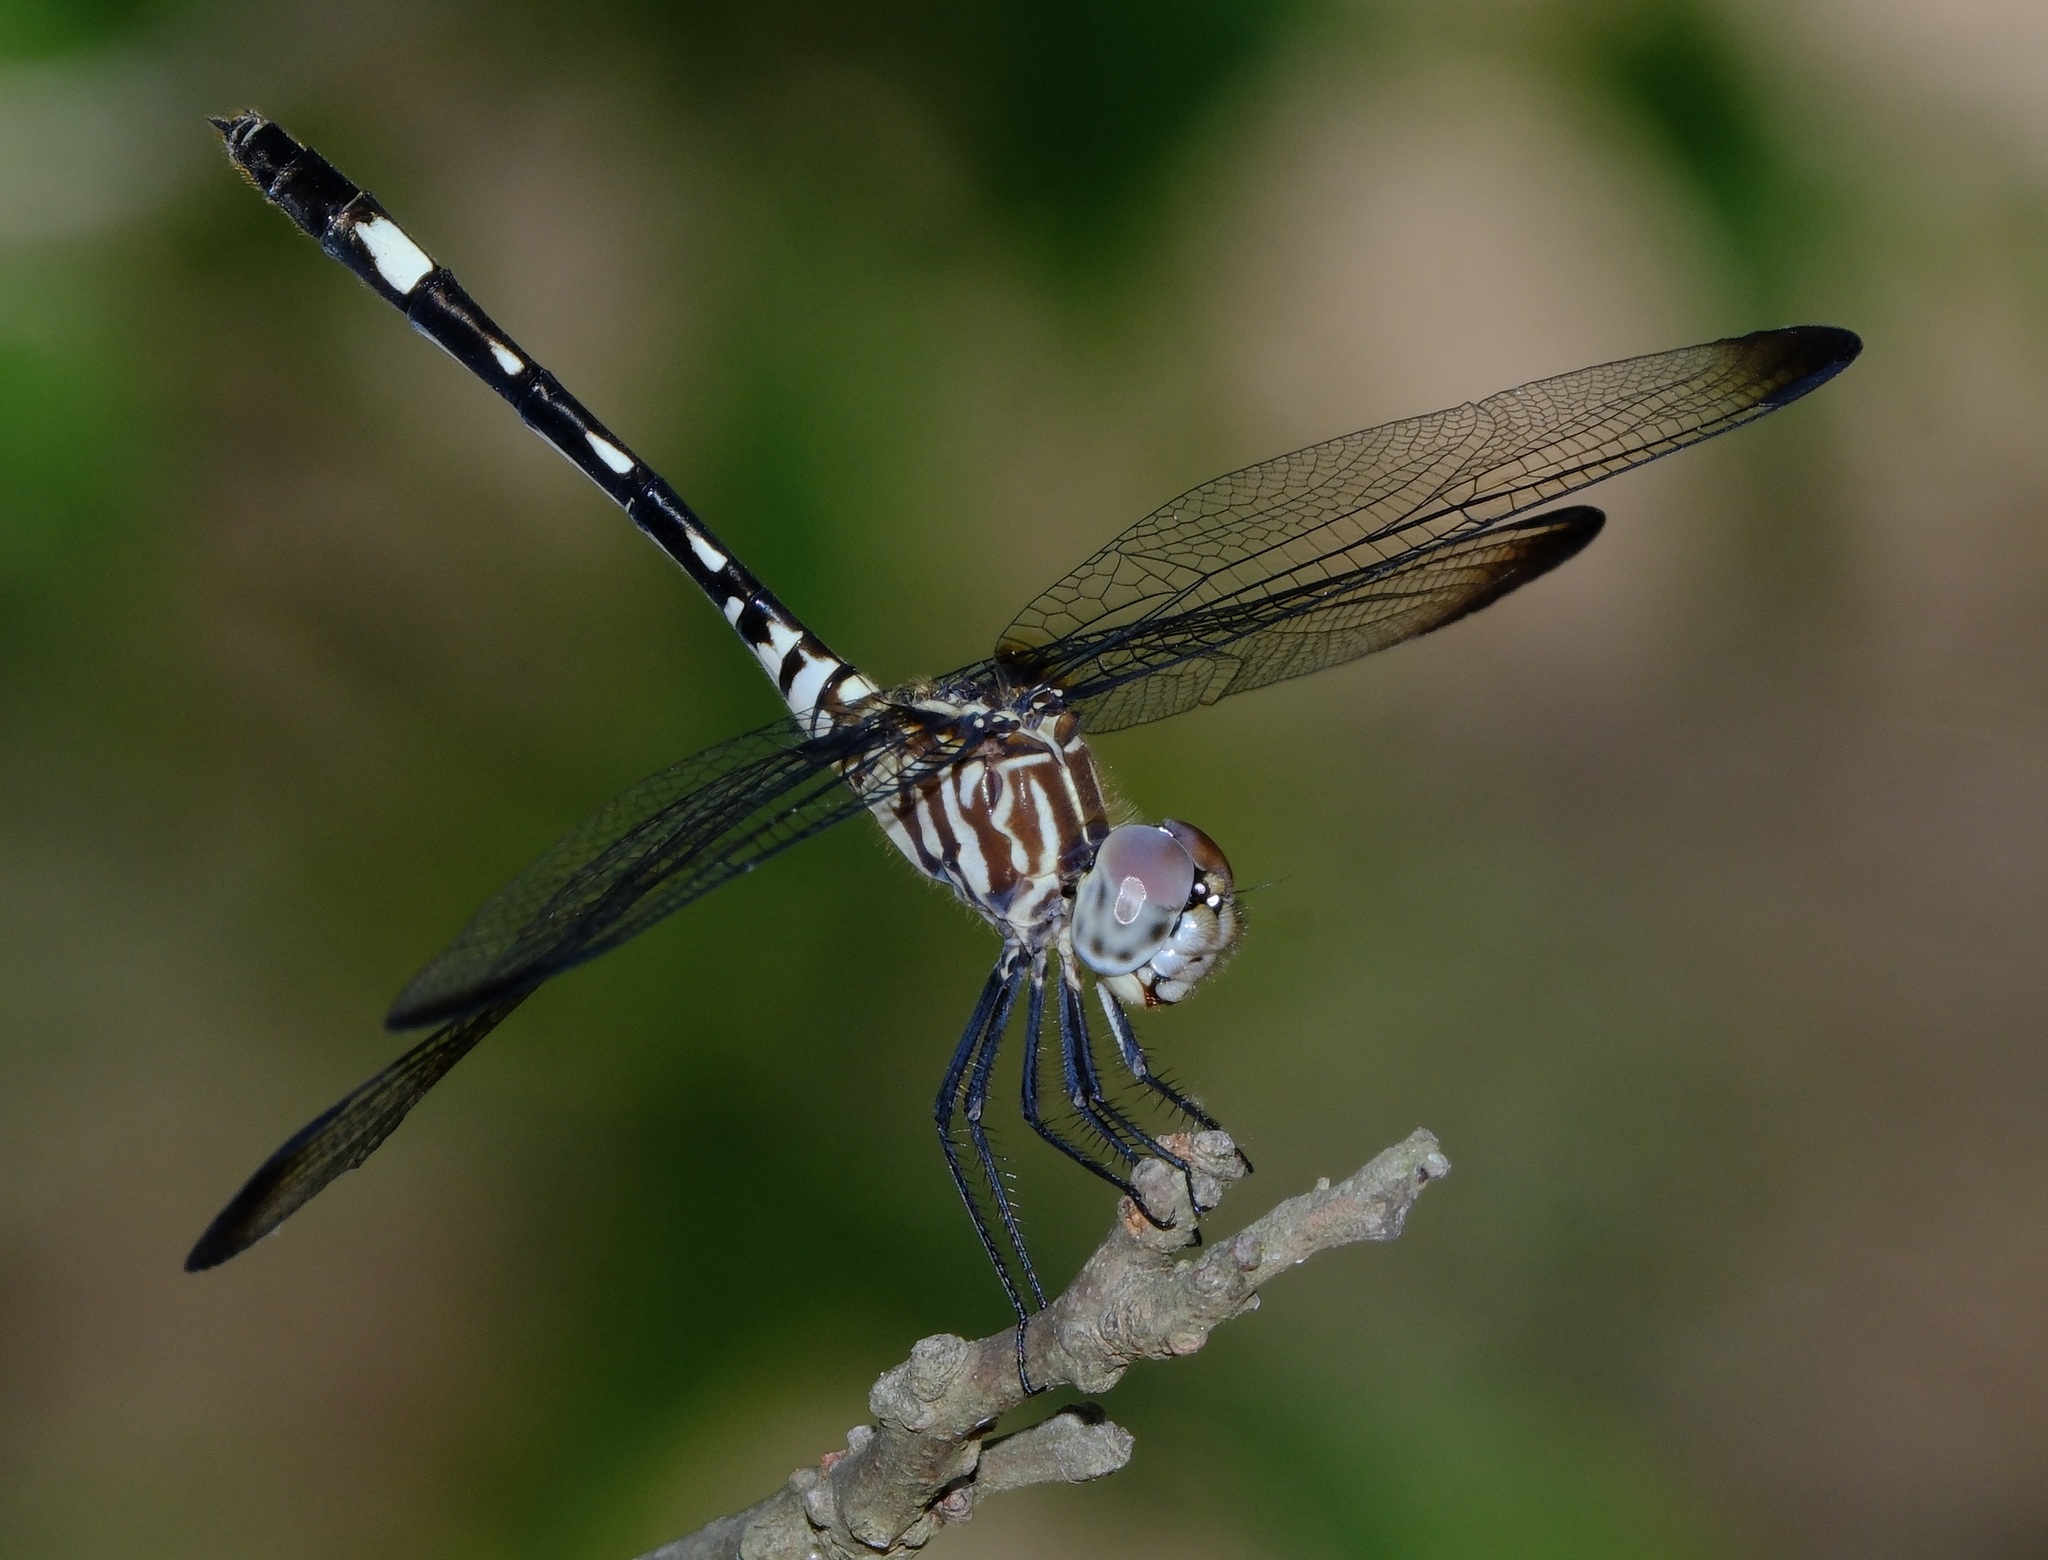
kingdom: Animalia
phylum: Arthropoda
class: Insecta
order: Odonata
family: Libellulidae
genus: Dythemis
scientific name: Dythemis velox
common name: Swift setwing
